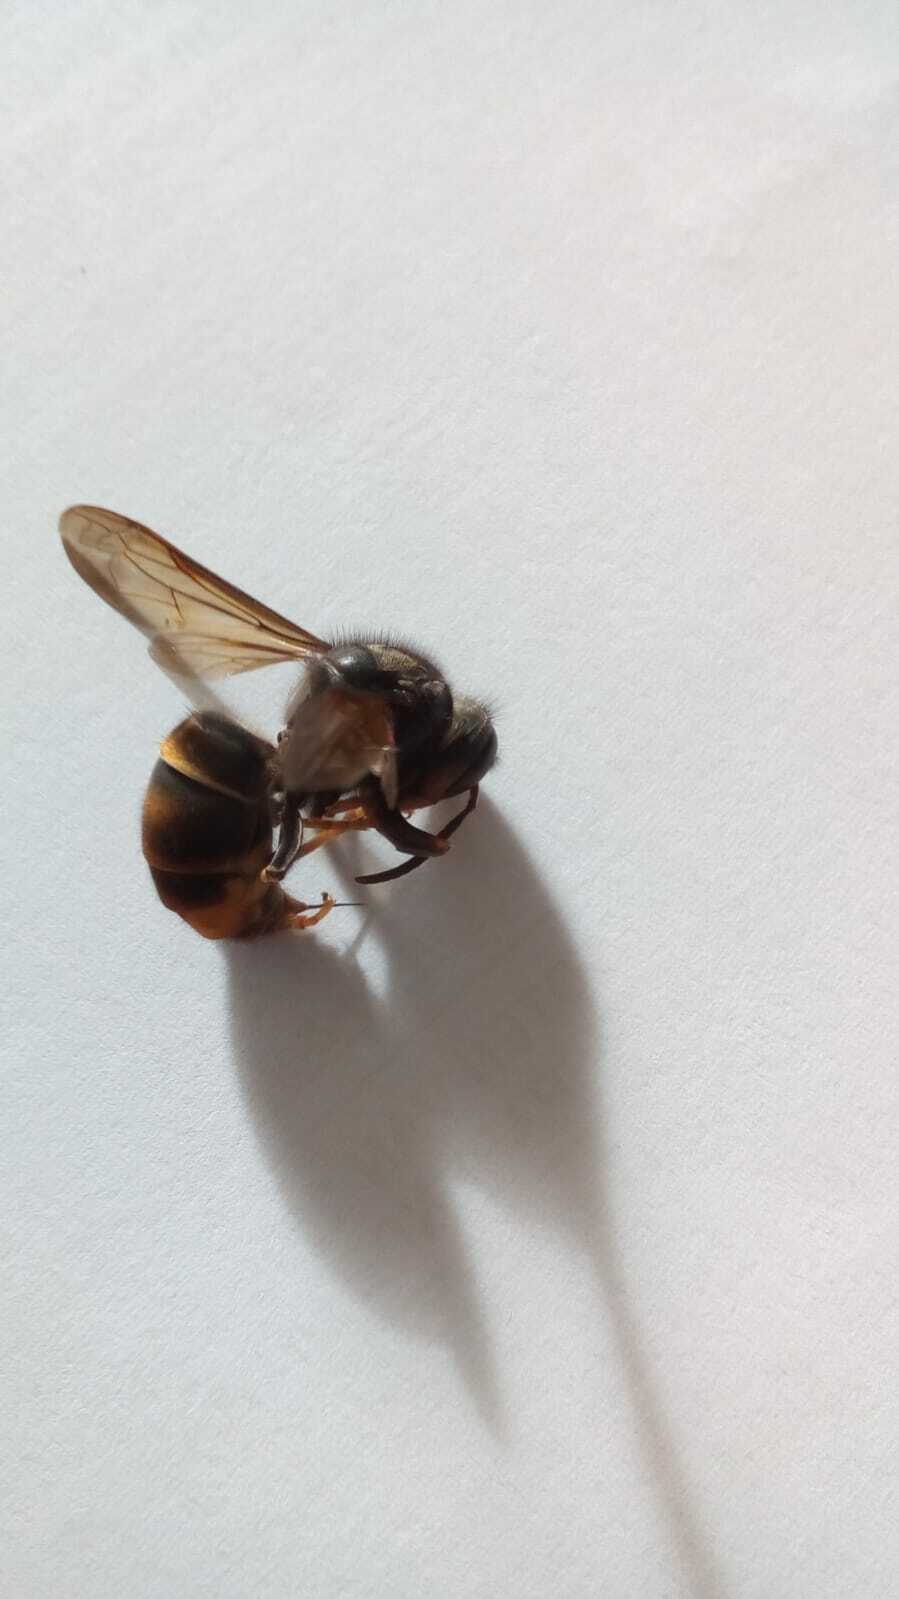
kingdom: Animalia
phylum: Arthropoda
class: Insecta
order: Hymenoptera
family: Vespidae
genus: Vespa
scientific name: Vespa velutina
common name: Asian hornet
